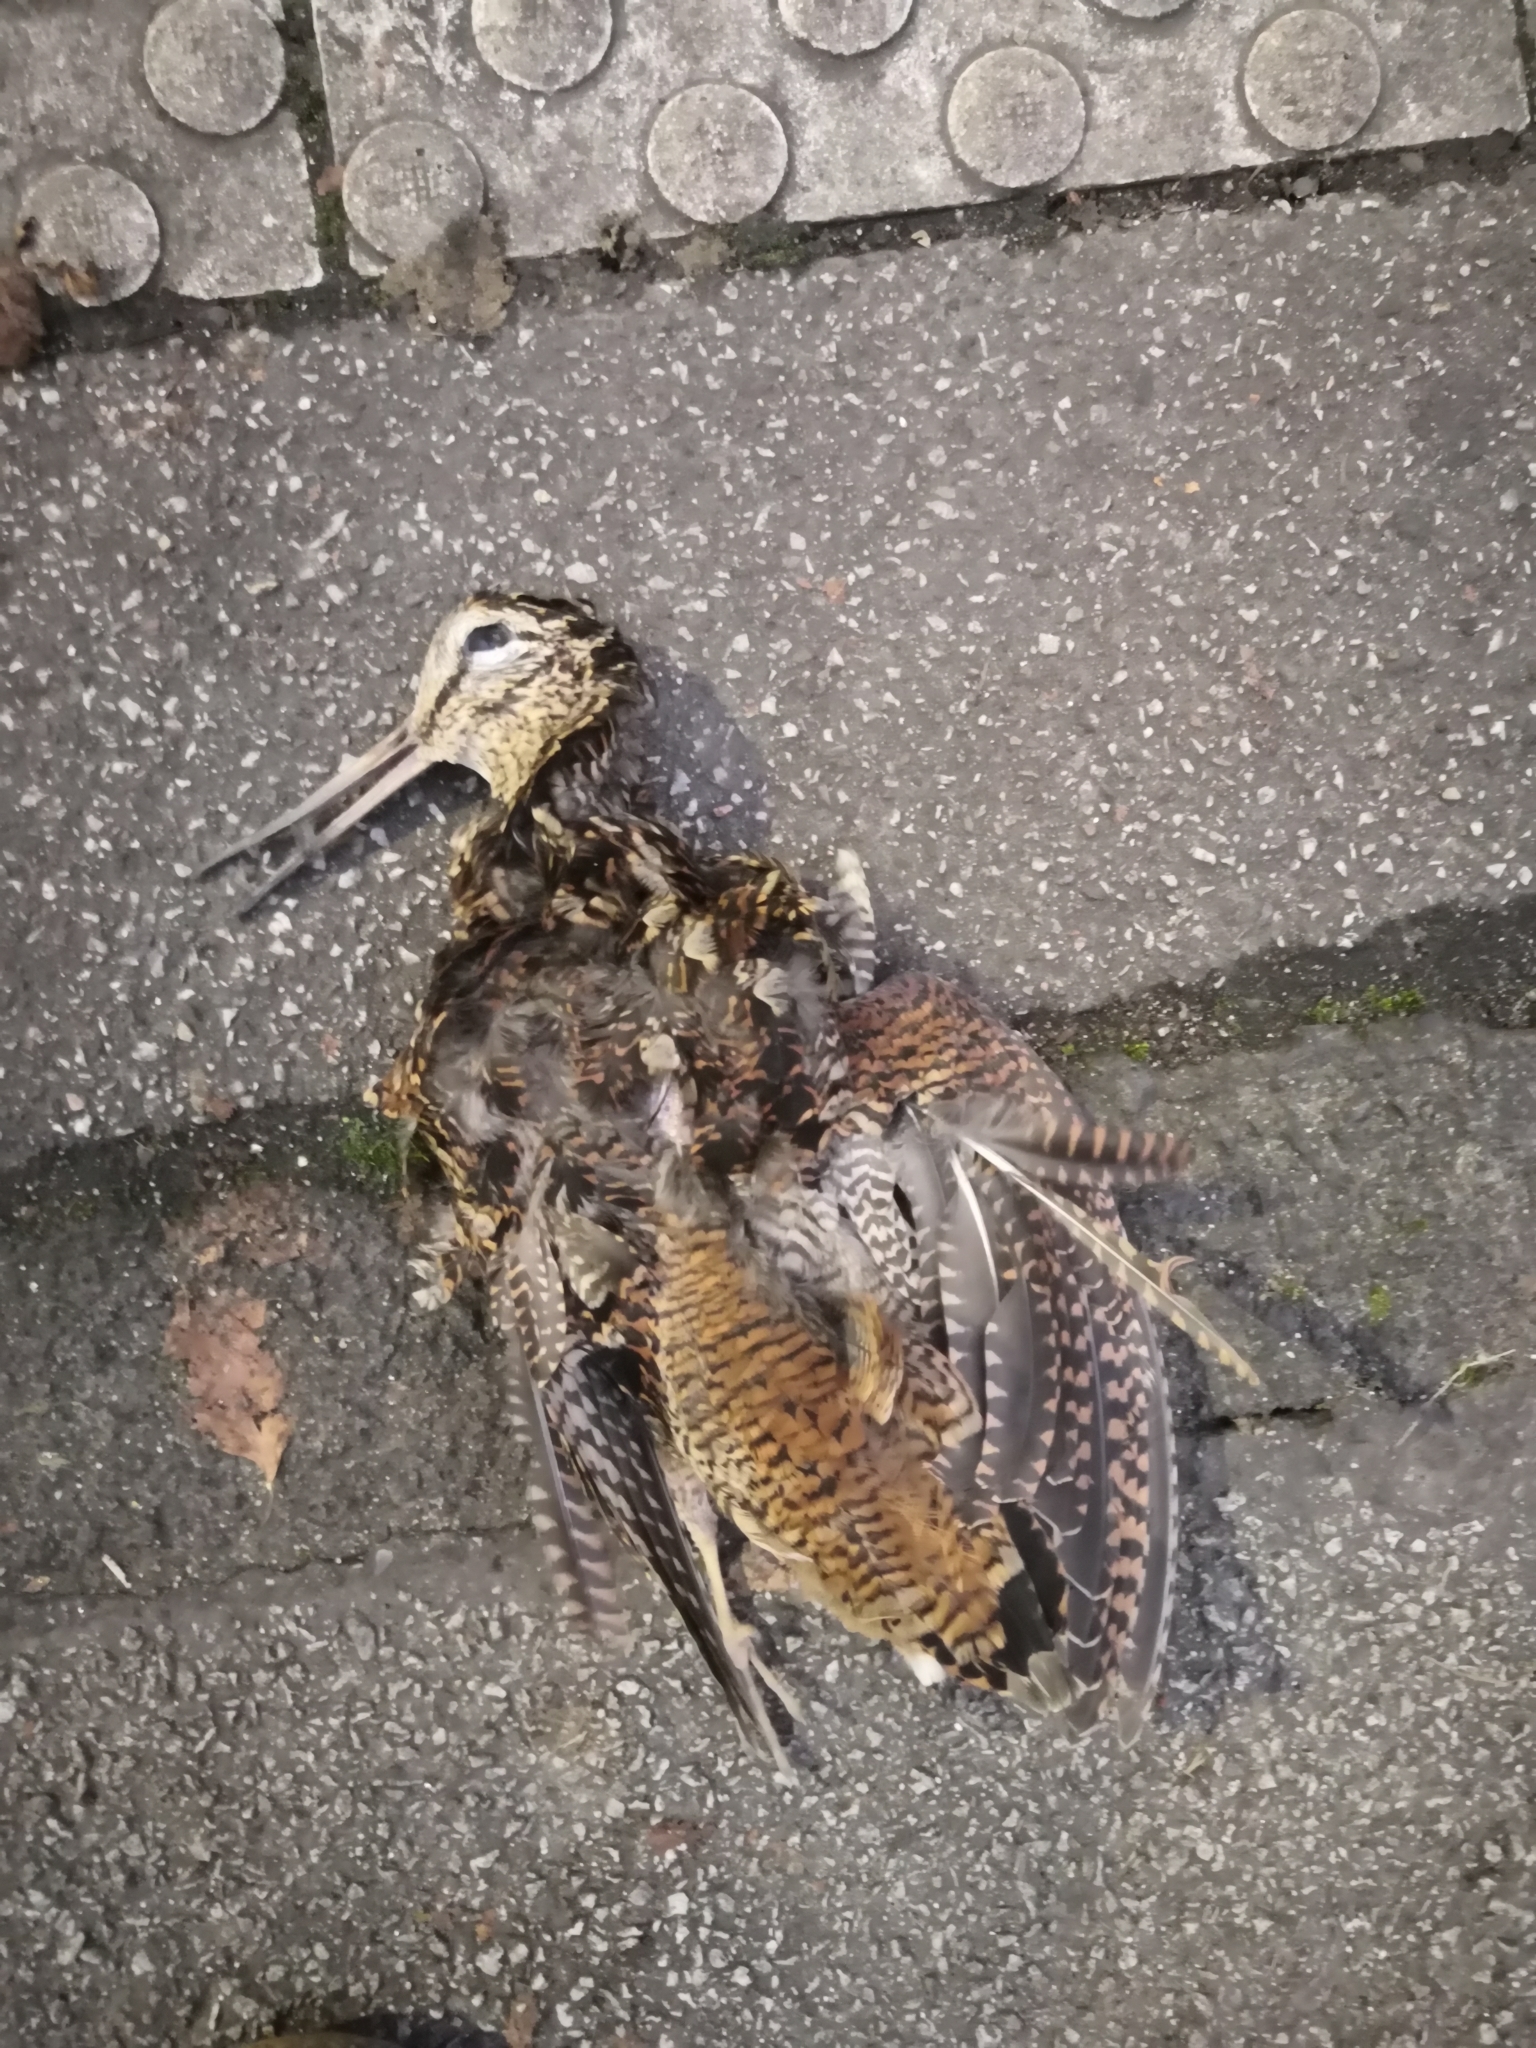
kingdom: Animalia
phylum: Chordata
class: Aves
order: Charadriiformes
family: Scolopacidae
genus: Scolopax
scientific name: Scolopax rusticola
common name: Eurasian woodcock
